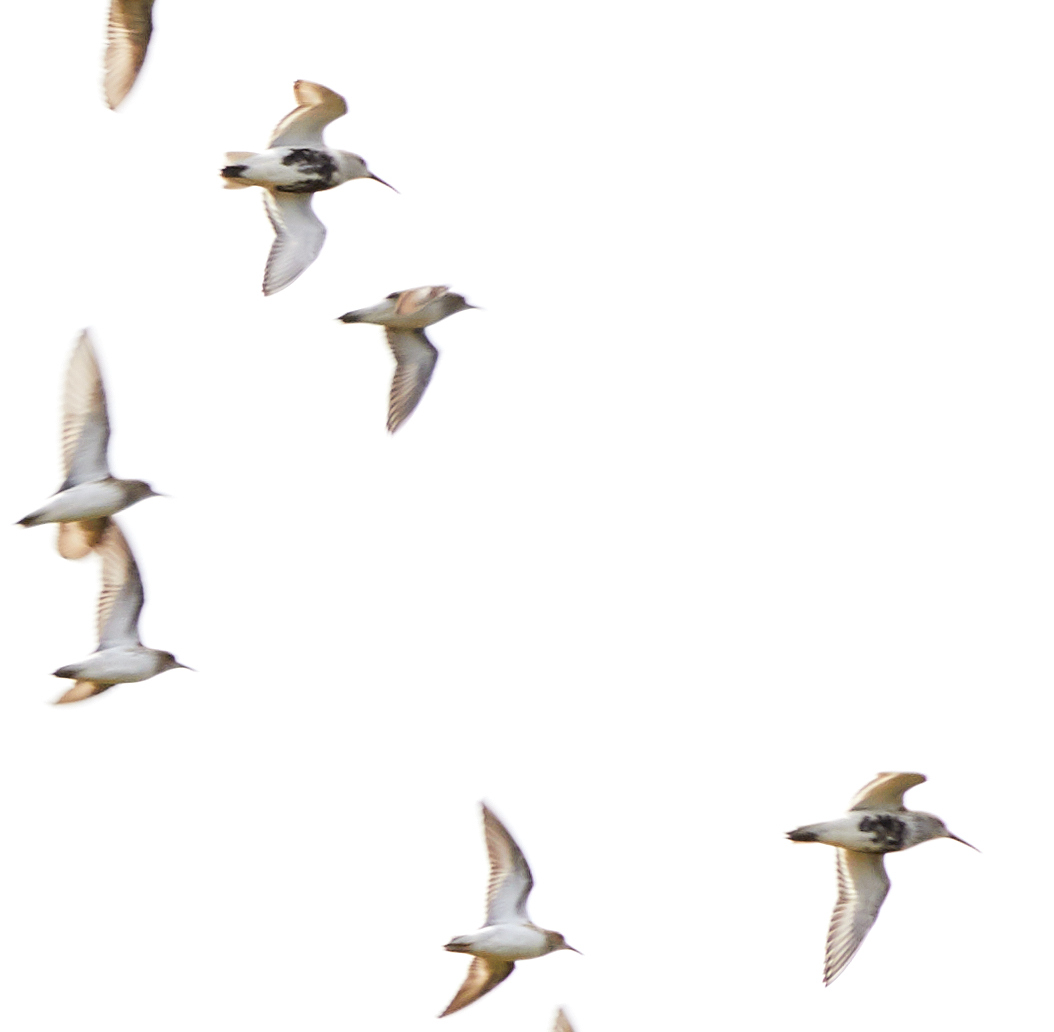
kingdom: Animalia
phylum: Chordata
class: Aves
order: Charadriiformes
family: Scolopacidae
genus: Calidris
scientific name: Calidris alpina
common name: Dunlin
